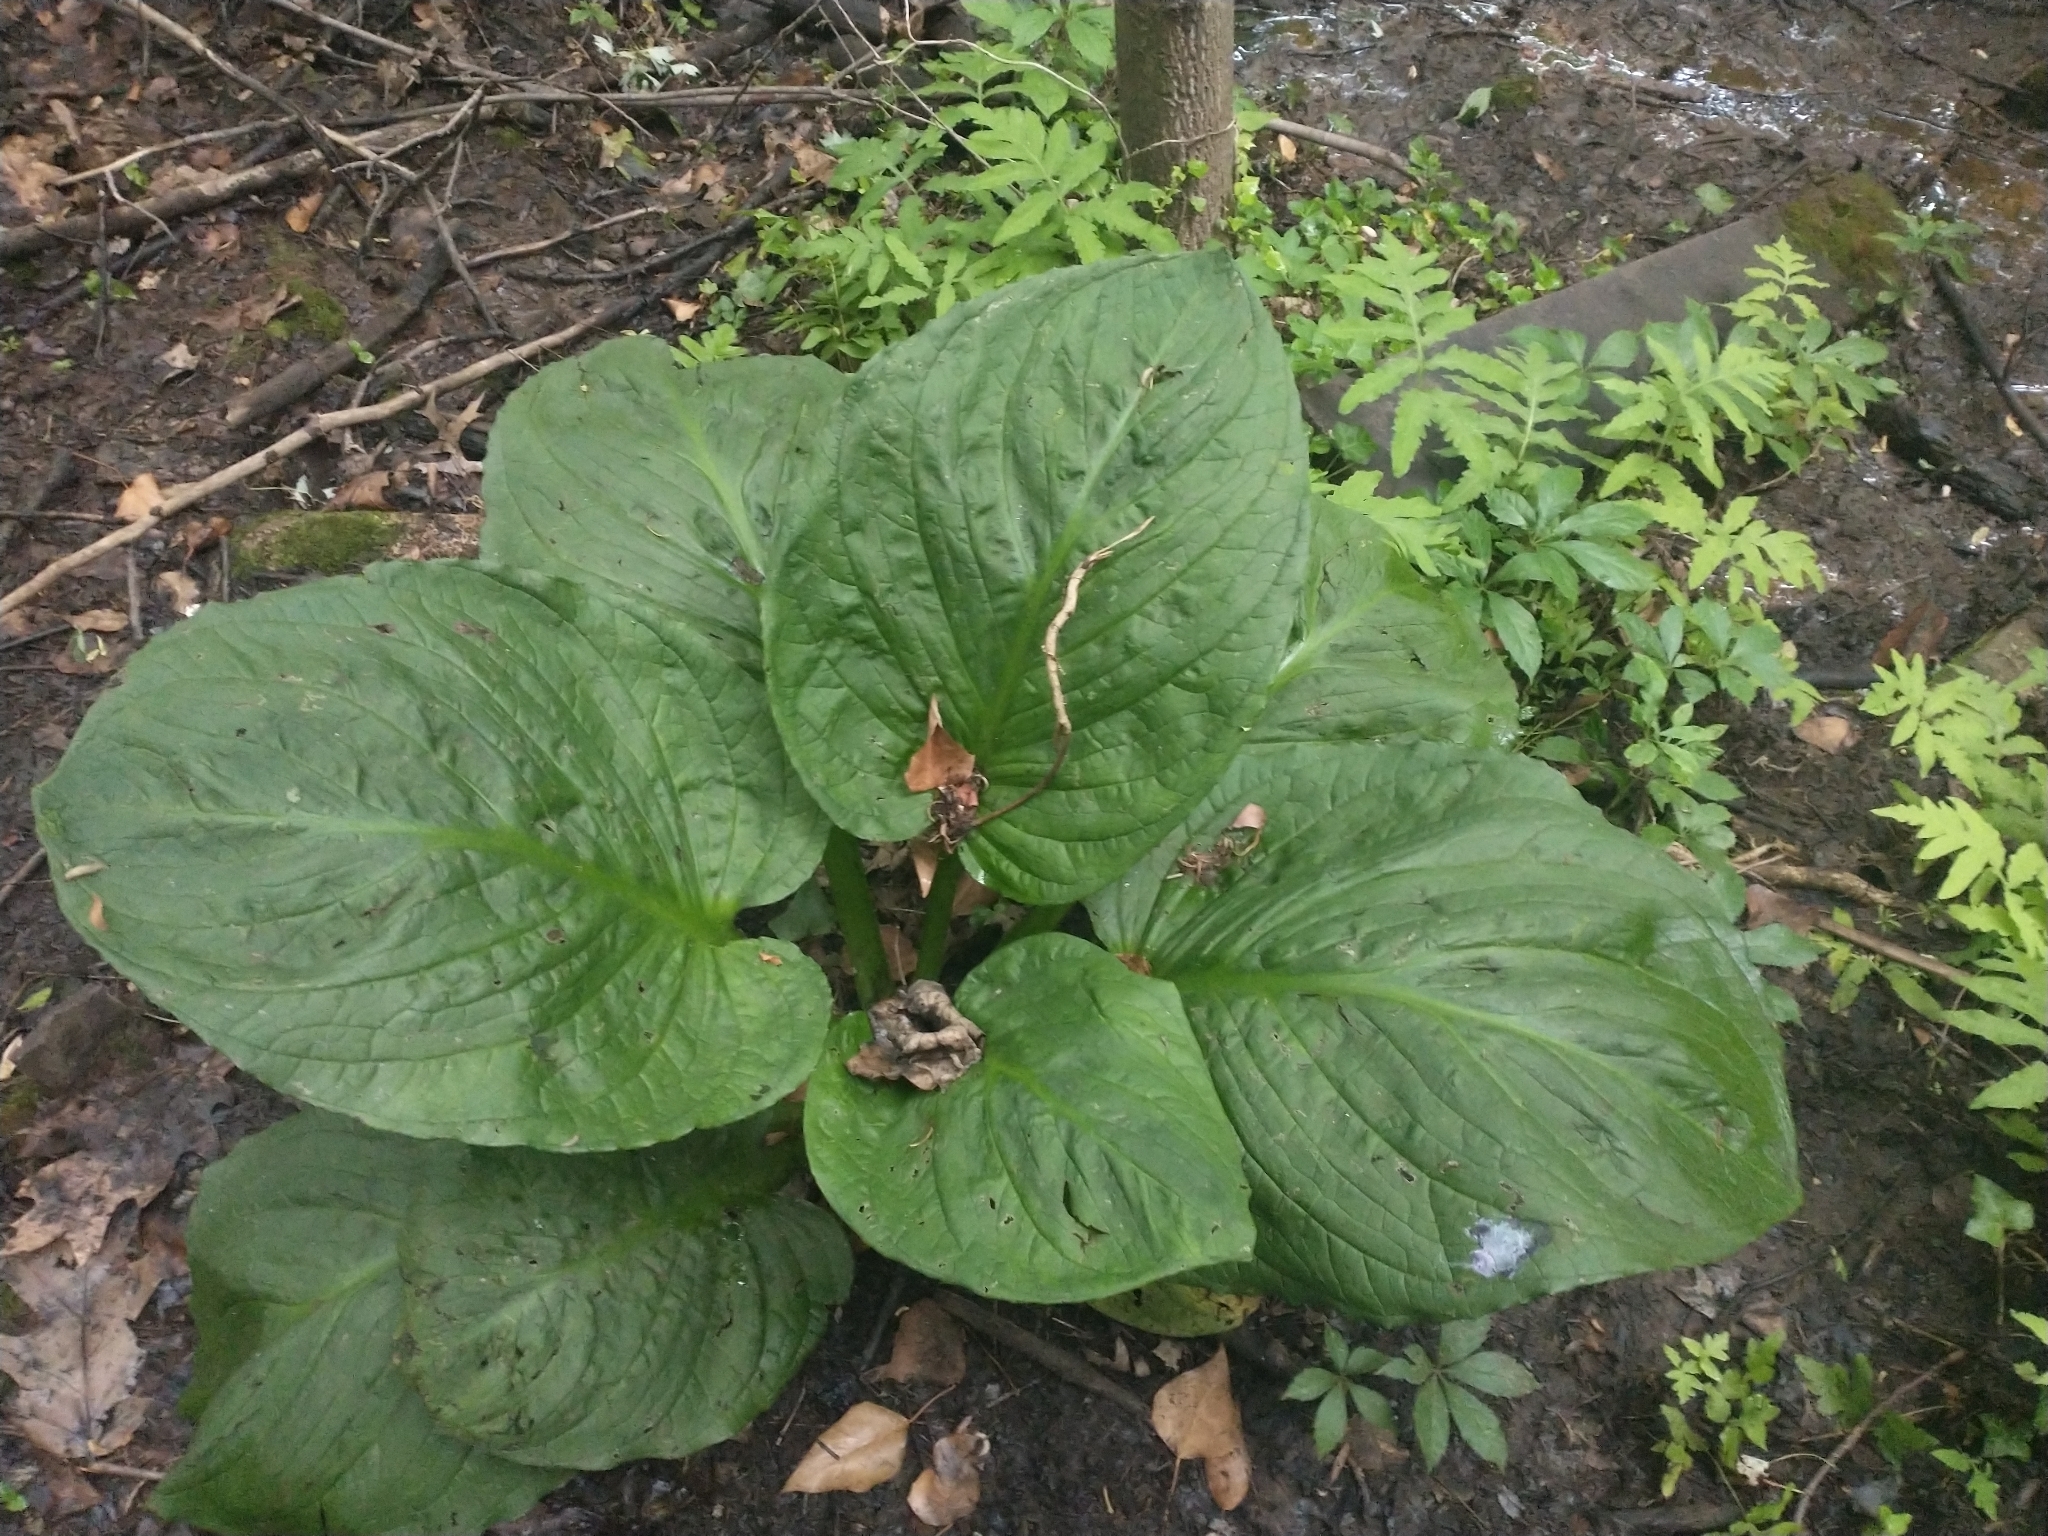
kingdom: Plantae
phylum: Tracheophyta
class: Liliopsida
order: Alismatales
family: Araceae
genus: Symplocarpus
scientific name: Symplocarpus foetidus
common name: Eastern skunk cabbage
